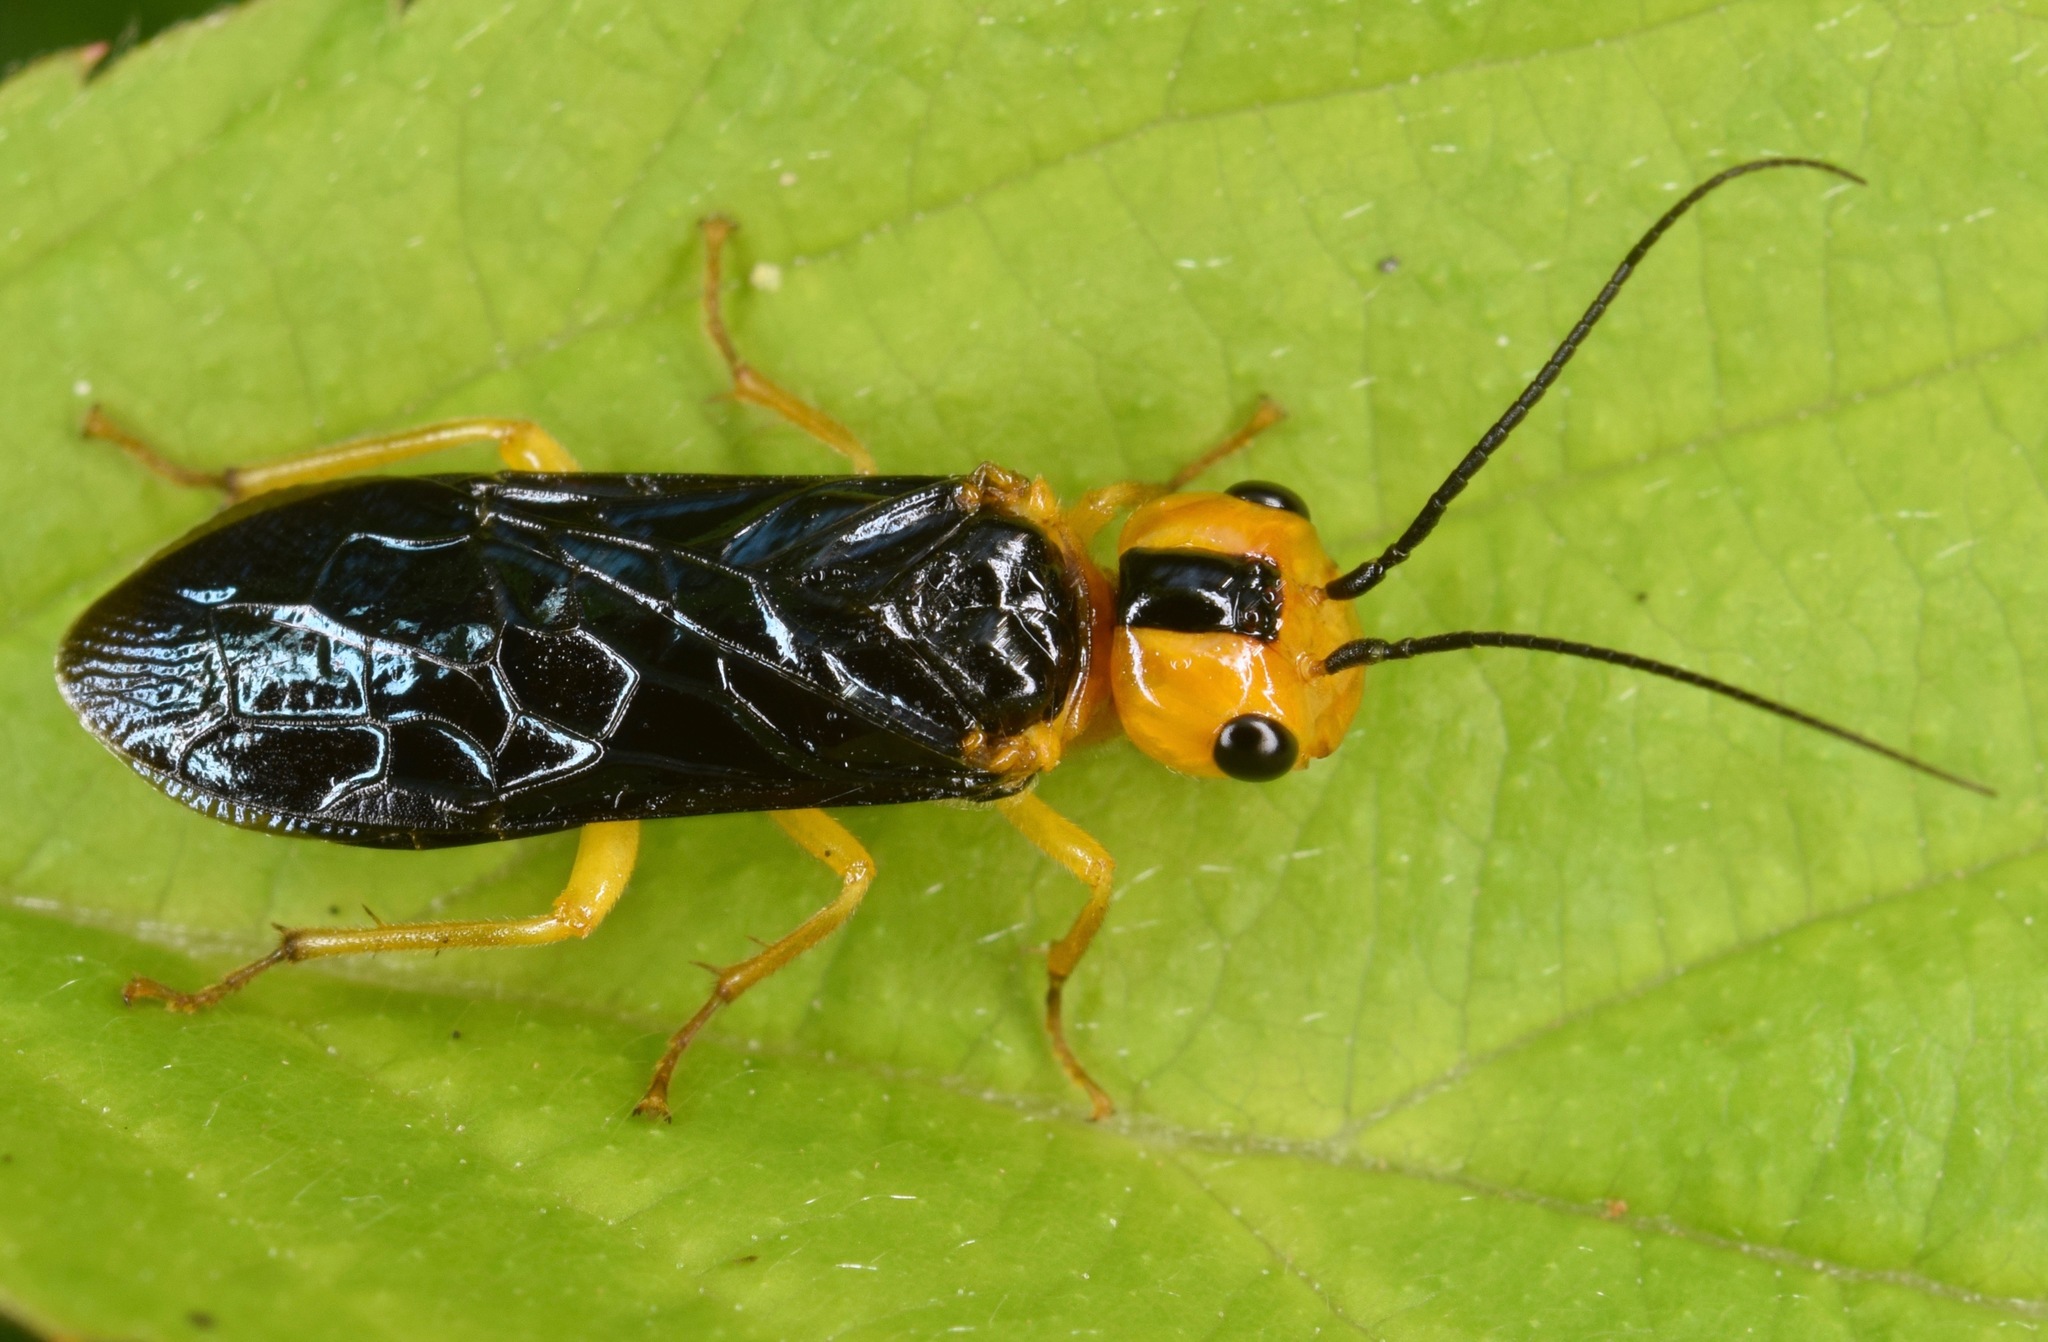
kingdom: Animalia
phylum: Arthropoda
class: Insecta
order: Hymenoptera
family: Pamphiliidae
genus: Onycholyda
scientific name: Onycholyda amplecta
